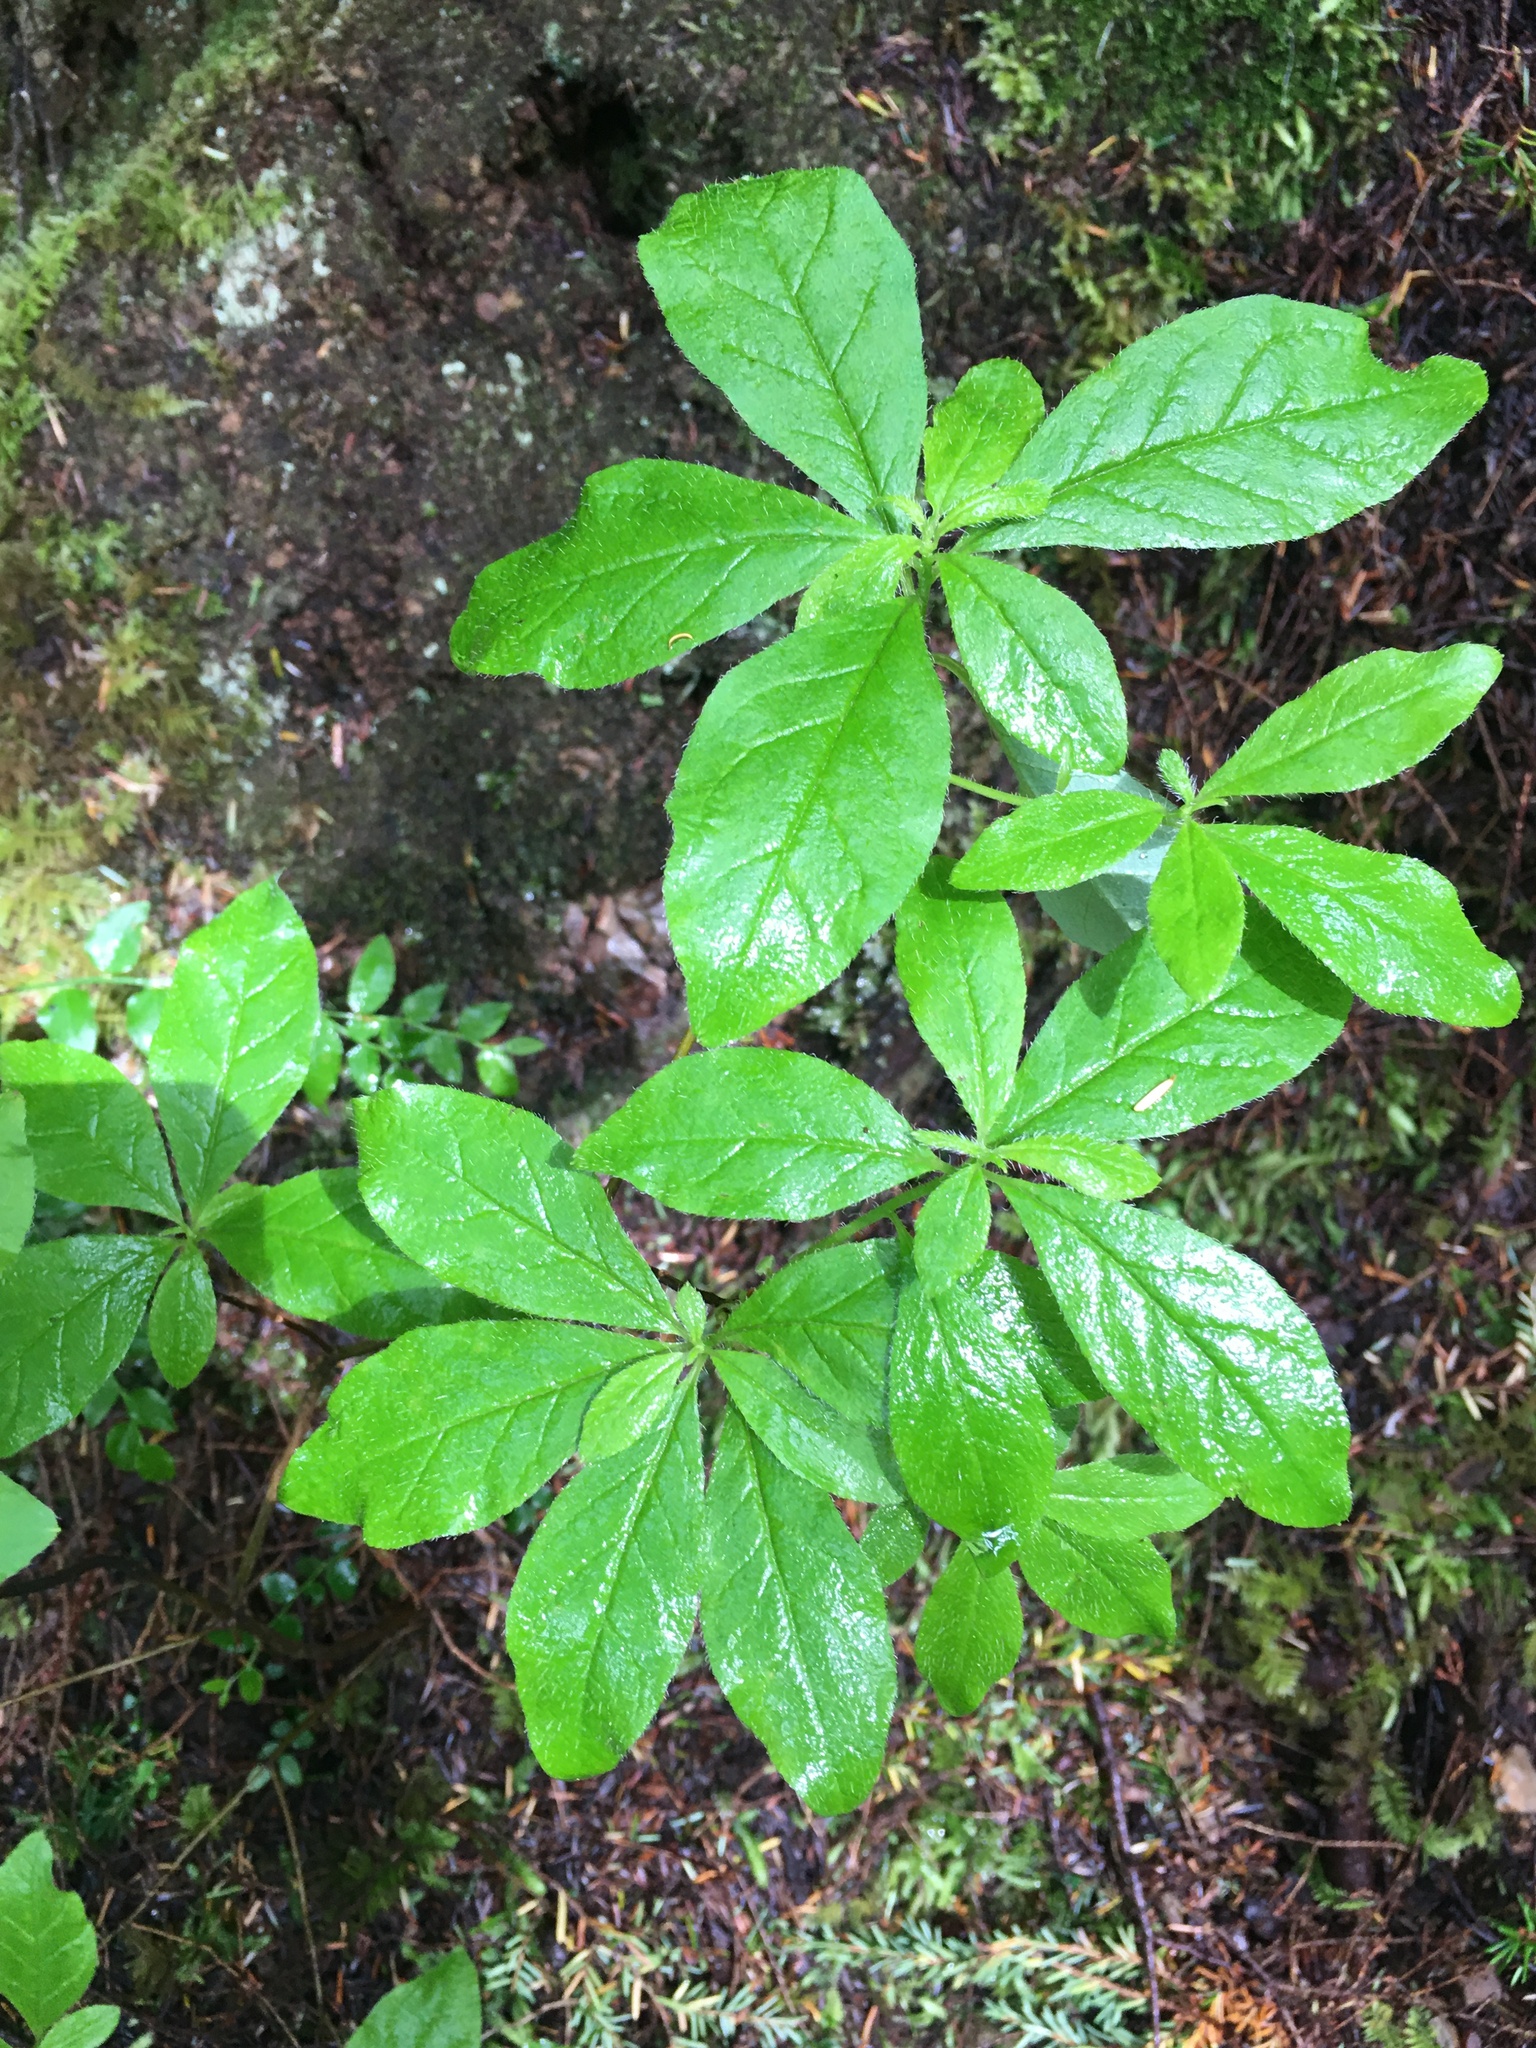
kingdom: Plantae
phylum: Tracheophyta
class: Magnoliopsida
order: Ericales
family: Ericaceae
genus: Rhododendron
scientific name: Rhododendron menziesii
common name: Pacific menziesia
